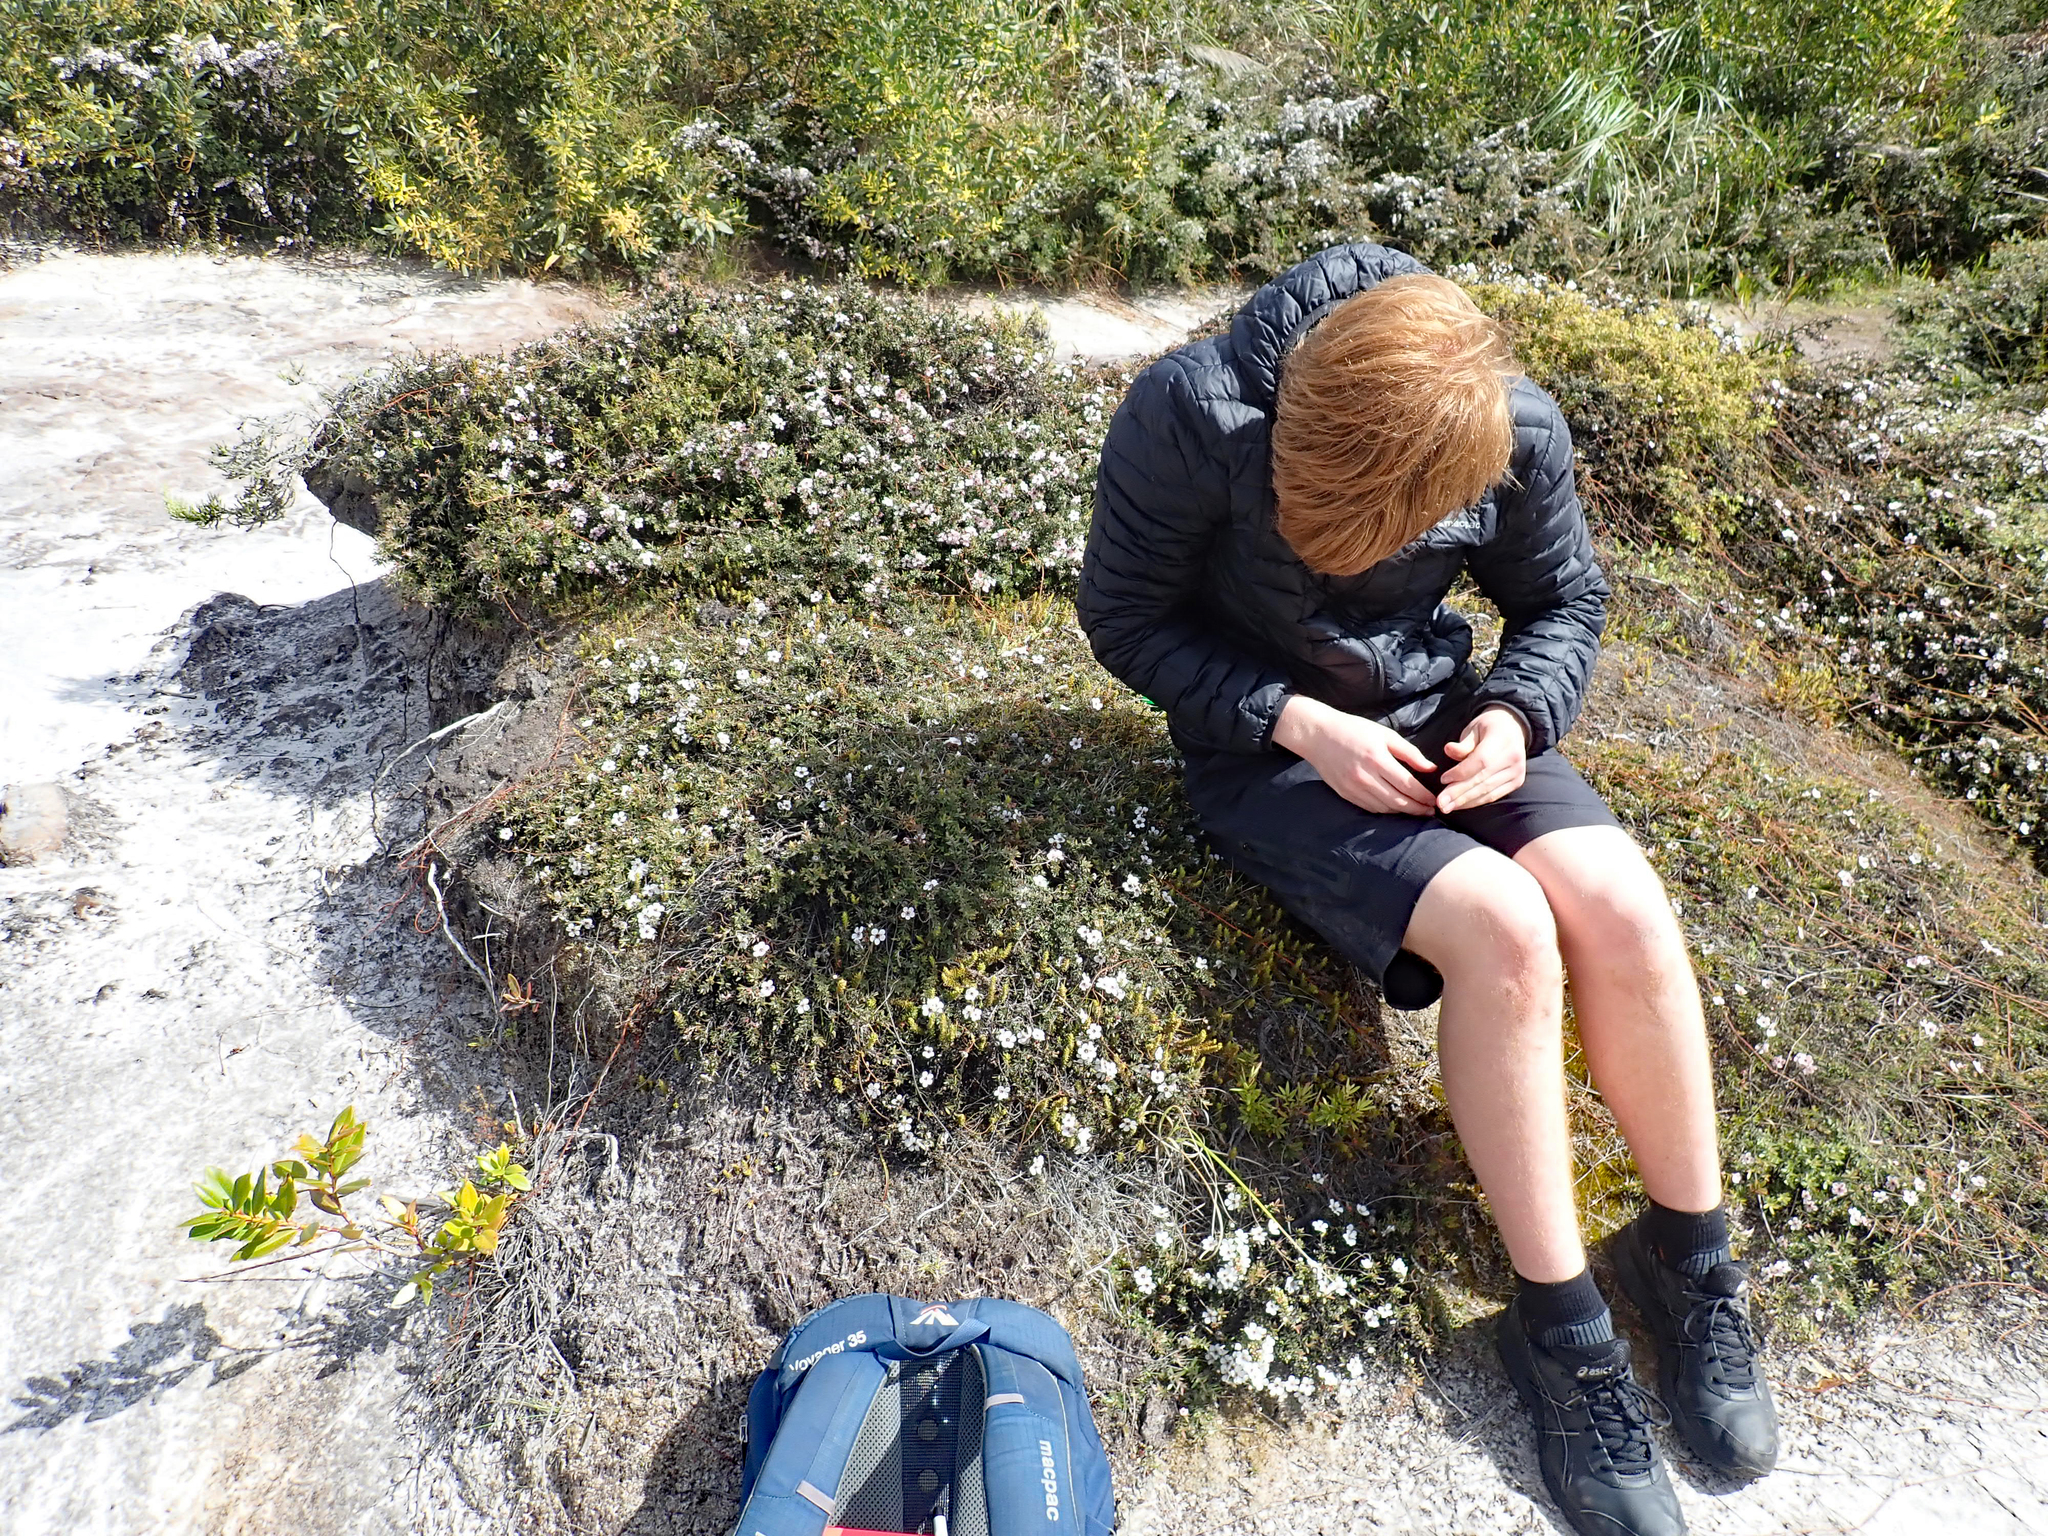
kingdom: Plantae
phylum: Tracheophyta
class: Magnoliopsida
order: Myrtales
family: Myrtaceae
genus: Leptospermum
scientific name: Leptospermum scoparium
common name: Broom tea-tree
